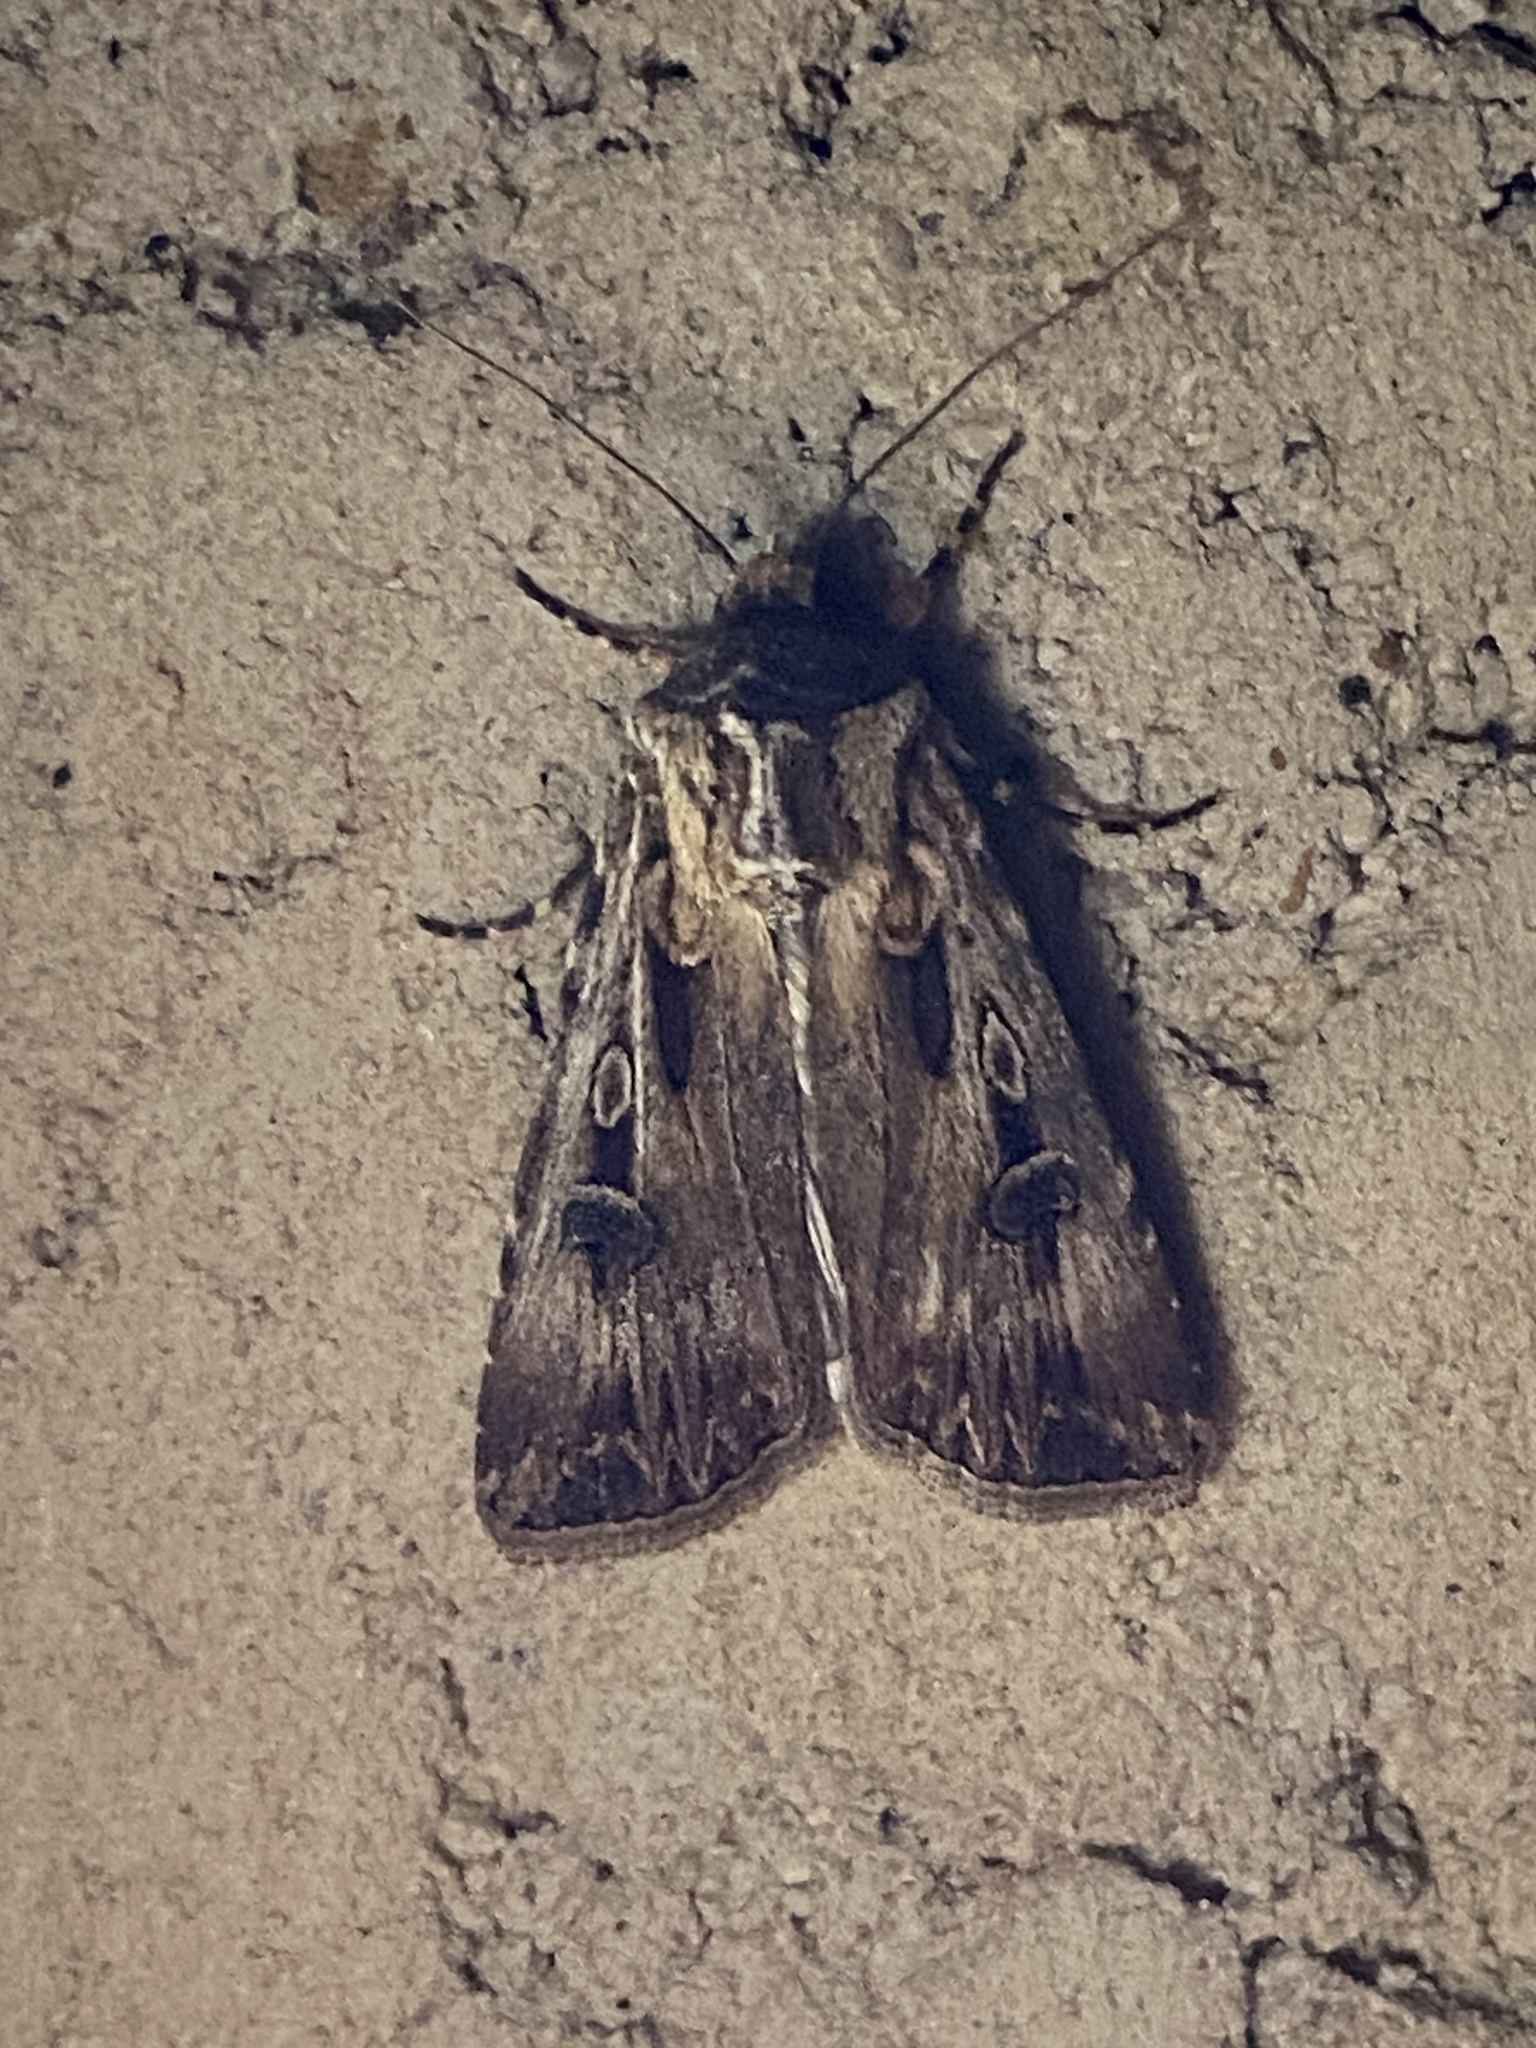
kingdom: Animalia
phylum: Arthropoda
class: Insecta
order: Lepidoptera
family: Noctuidae
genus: Agrotis
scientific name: Agrotis munda
